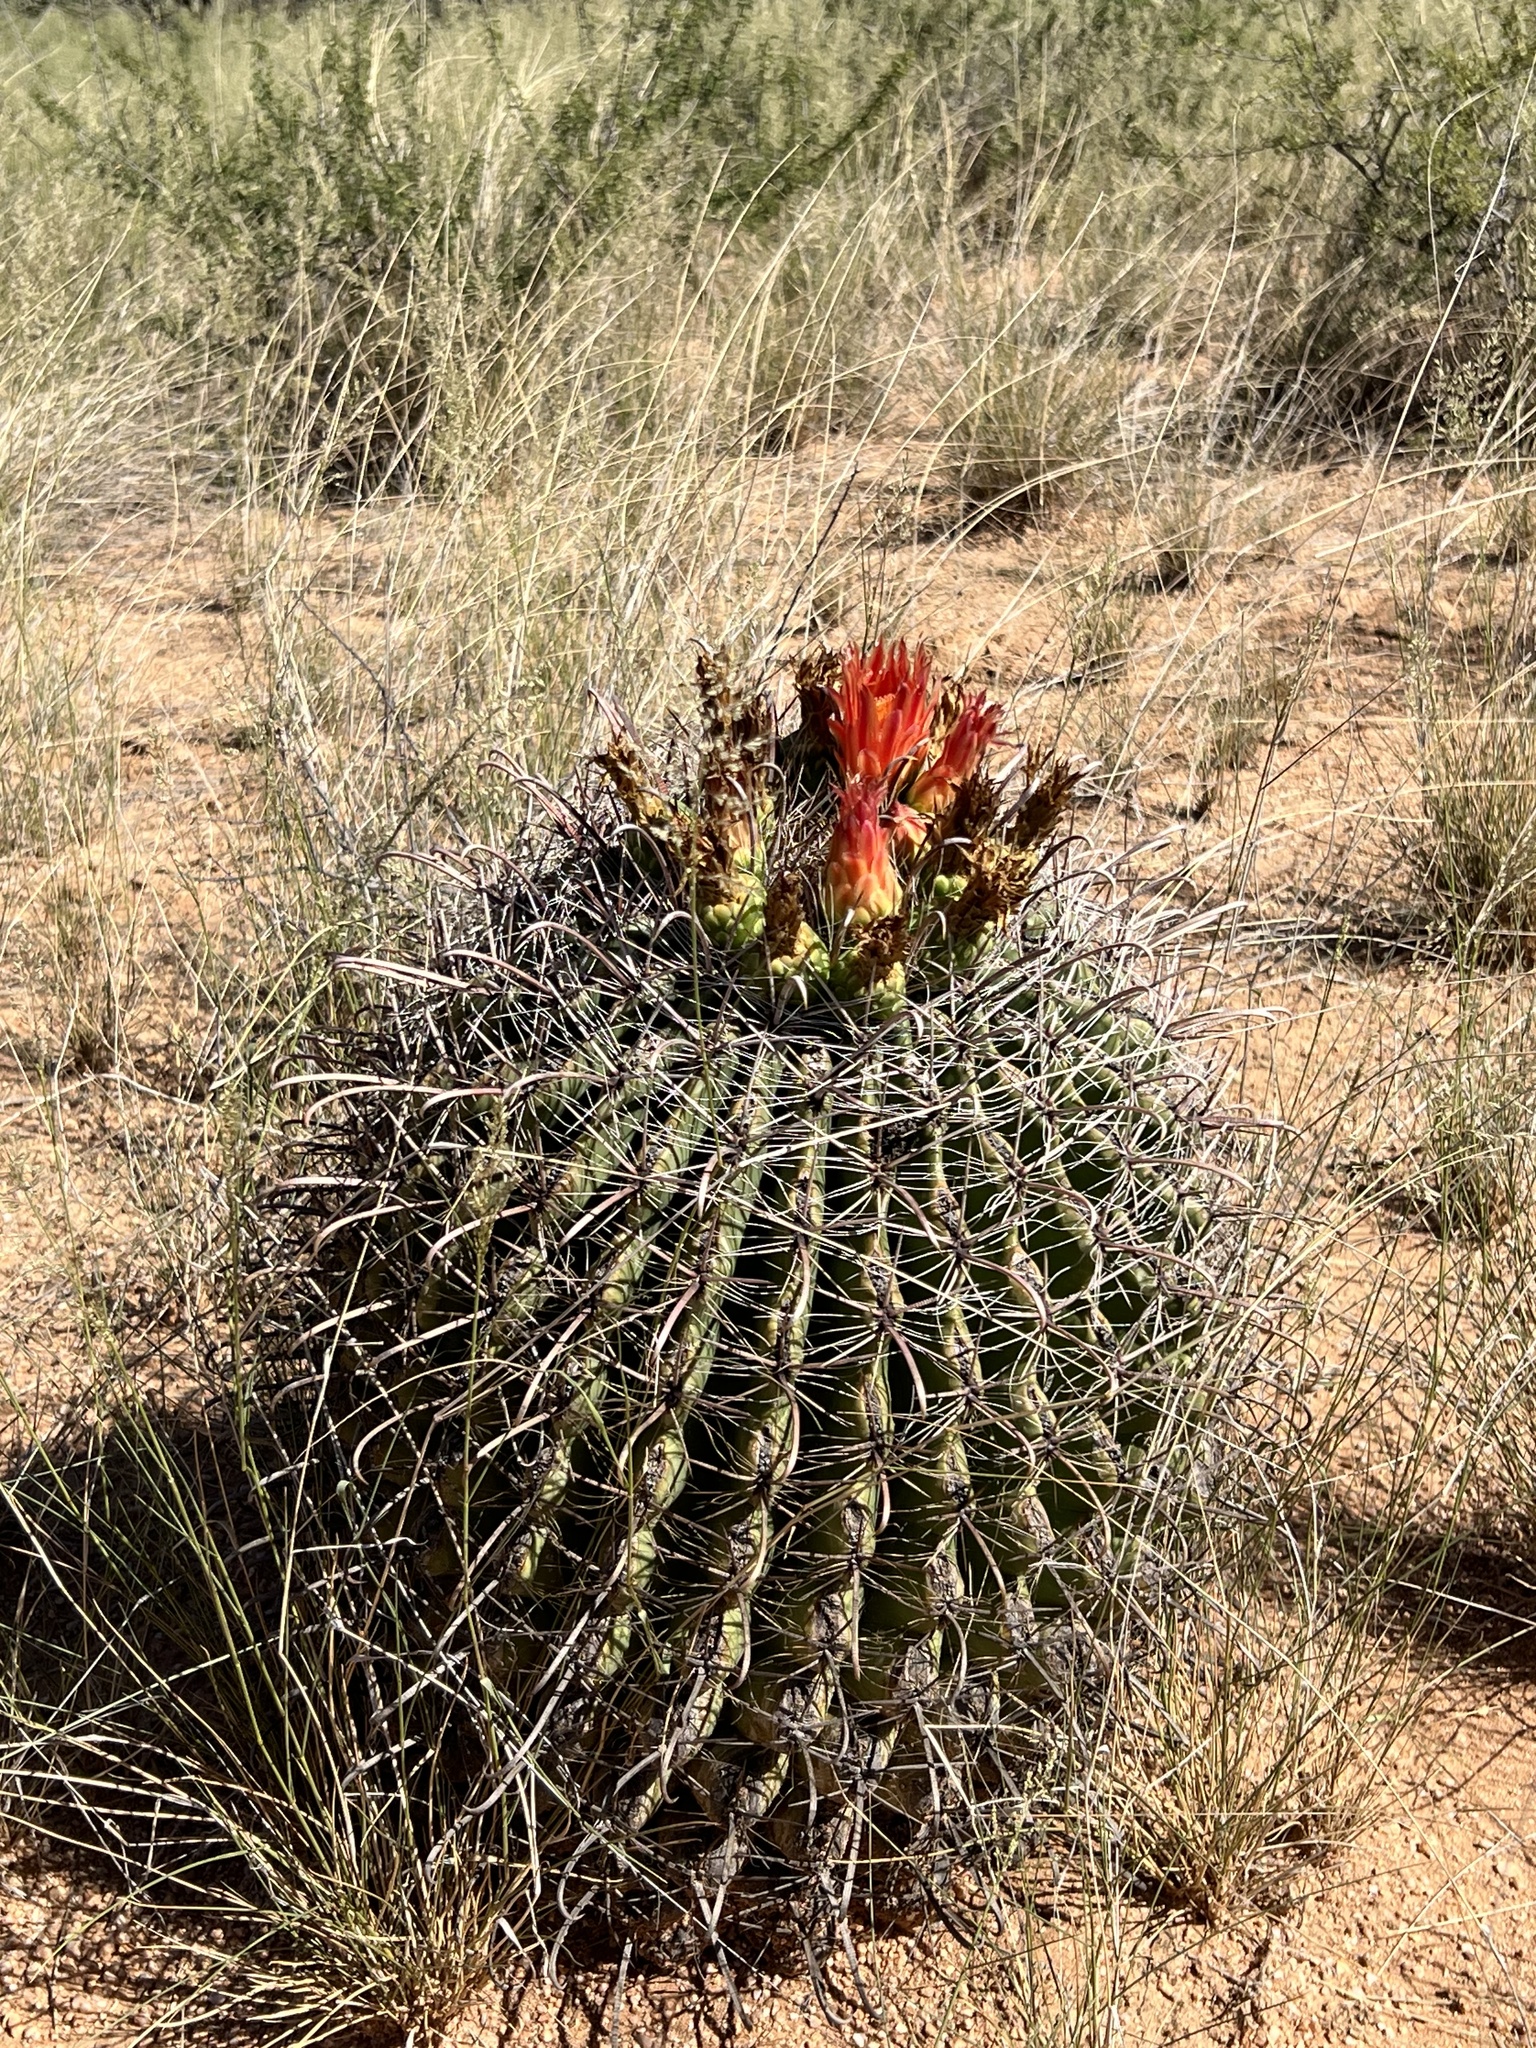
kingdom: Plantae
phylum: Tracheophyta
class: Magnoliopsida
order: Caryophyllales
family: Cactaceae
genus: Ferocactus
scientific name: Ferocactus wislizeni
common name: Candy barrel cactus
